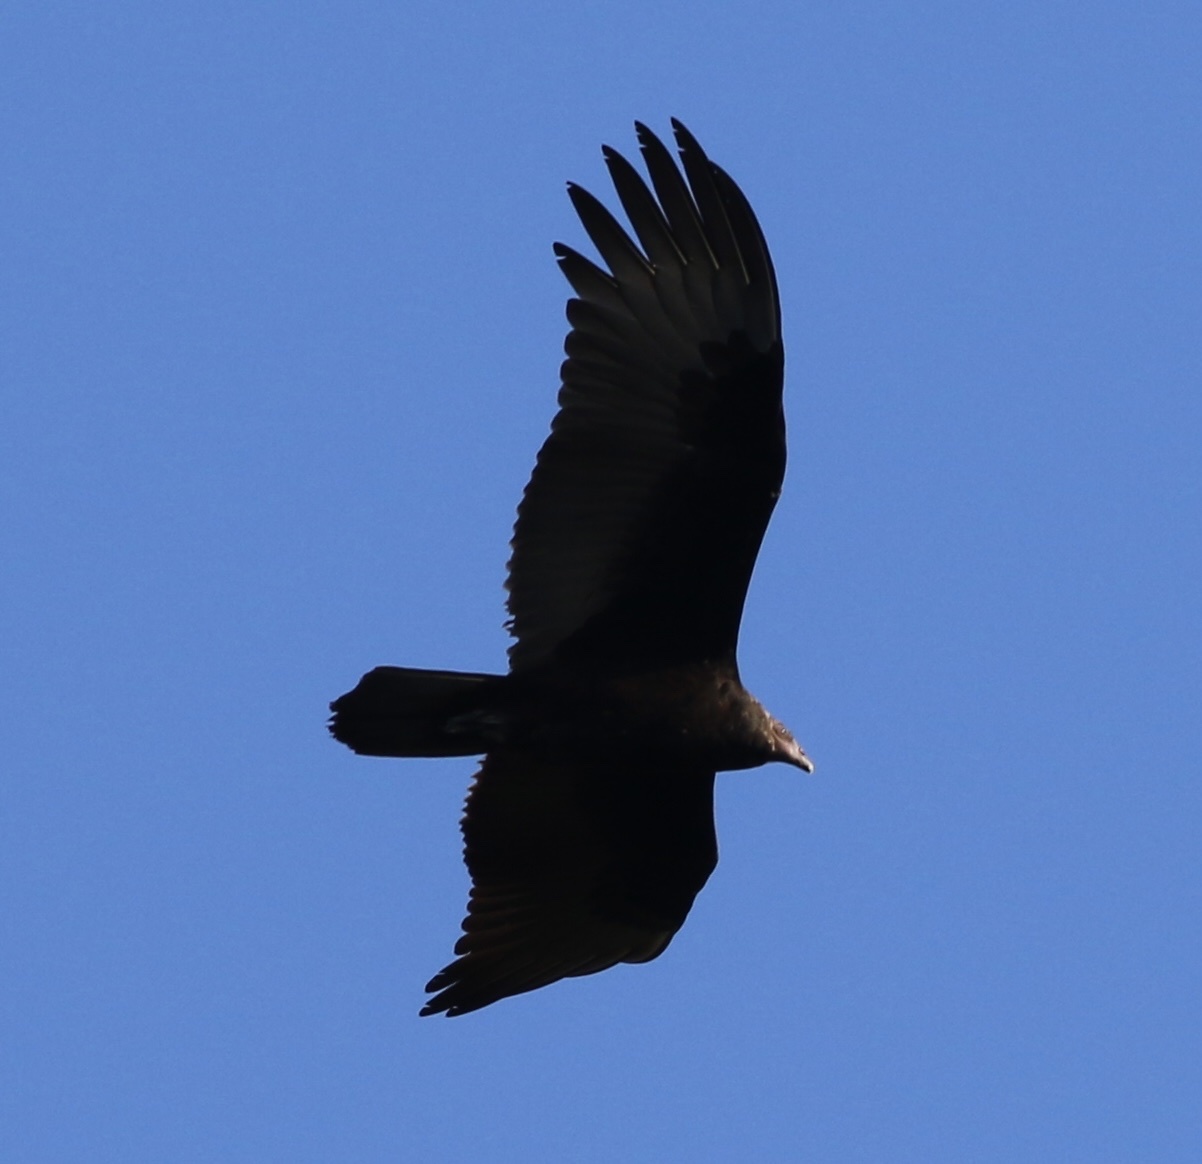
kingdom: Animalia
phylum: Chordata
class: Aves
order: Accipitriformes
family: Cathartidae
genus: Cathartes
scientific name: Cathartes aura
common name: Turkey vulture
